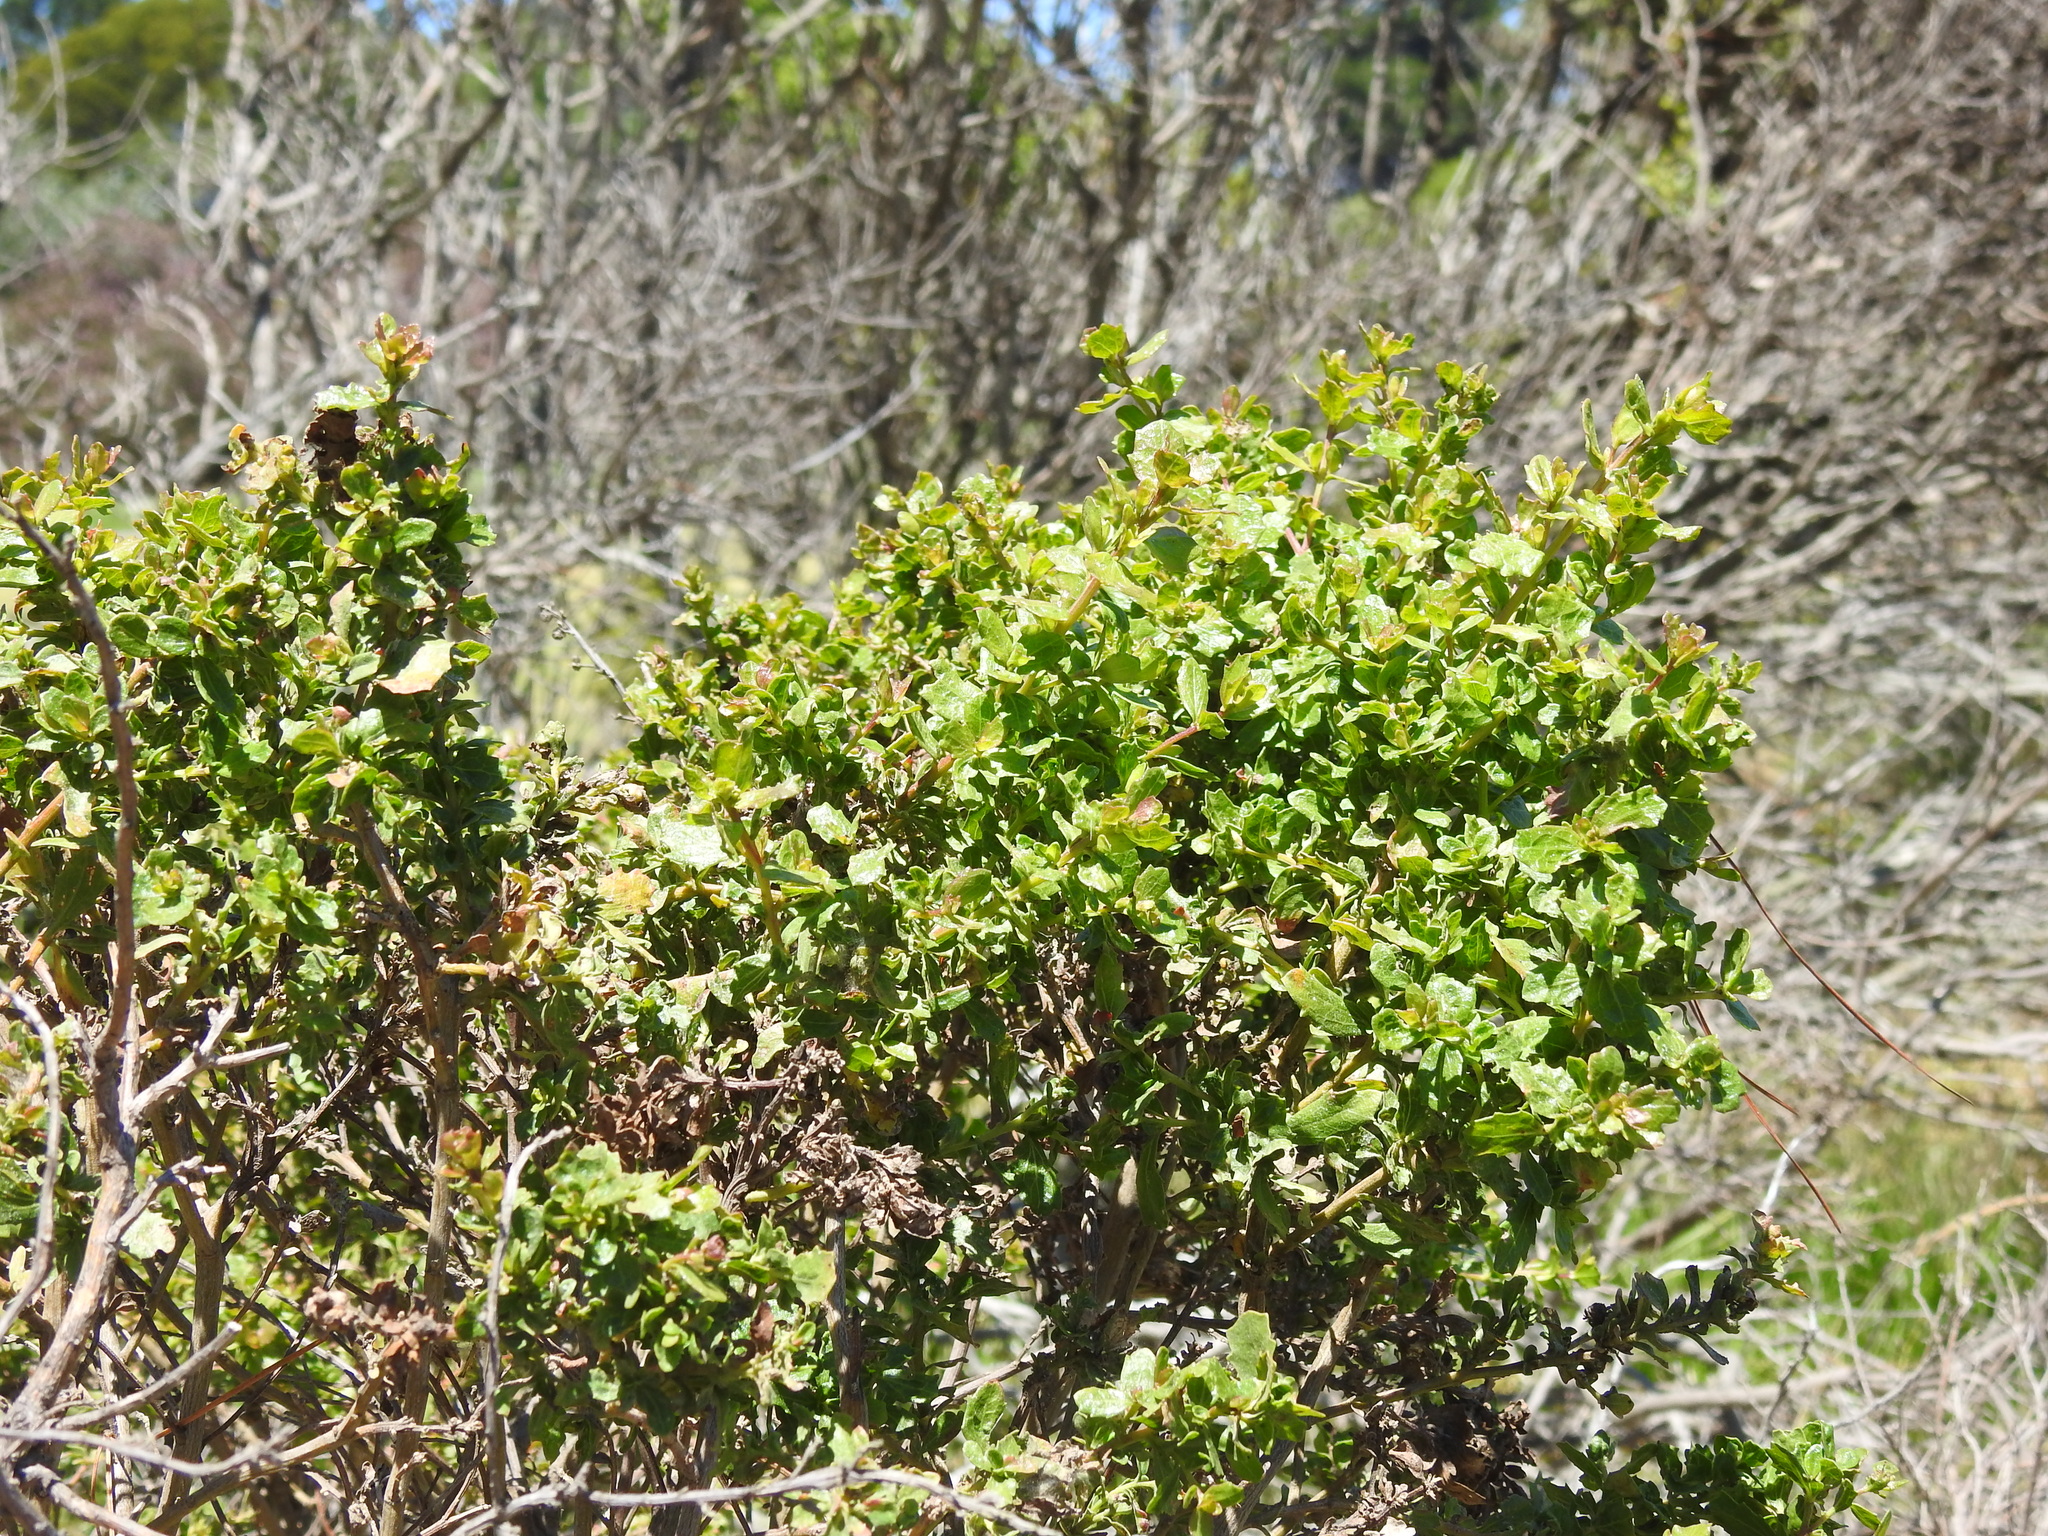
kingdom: Plantae
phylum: Tracheophyta
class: Magnoliopsida
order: Asterales
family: Asteraceae
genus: Baccharis
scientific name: Baccharis pilularis
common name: Coyotebrush
